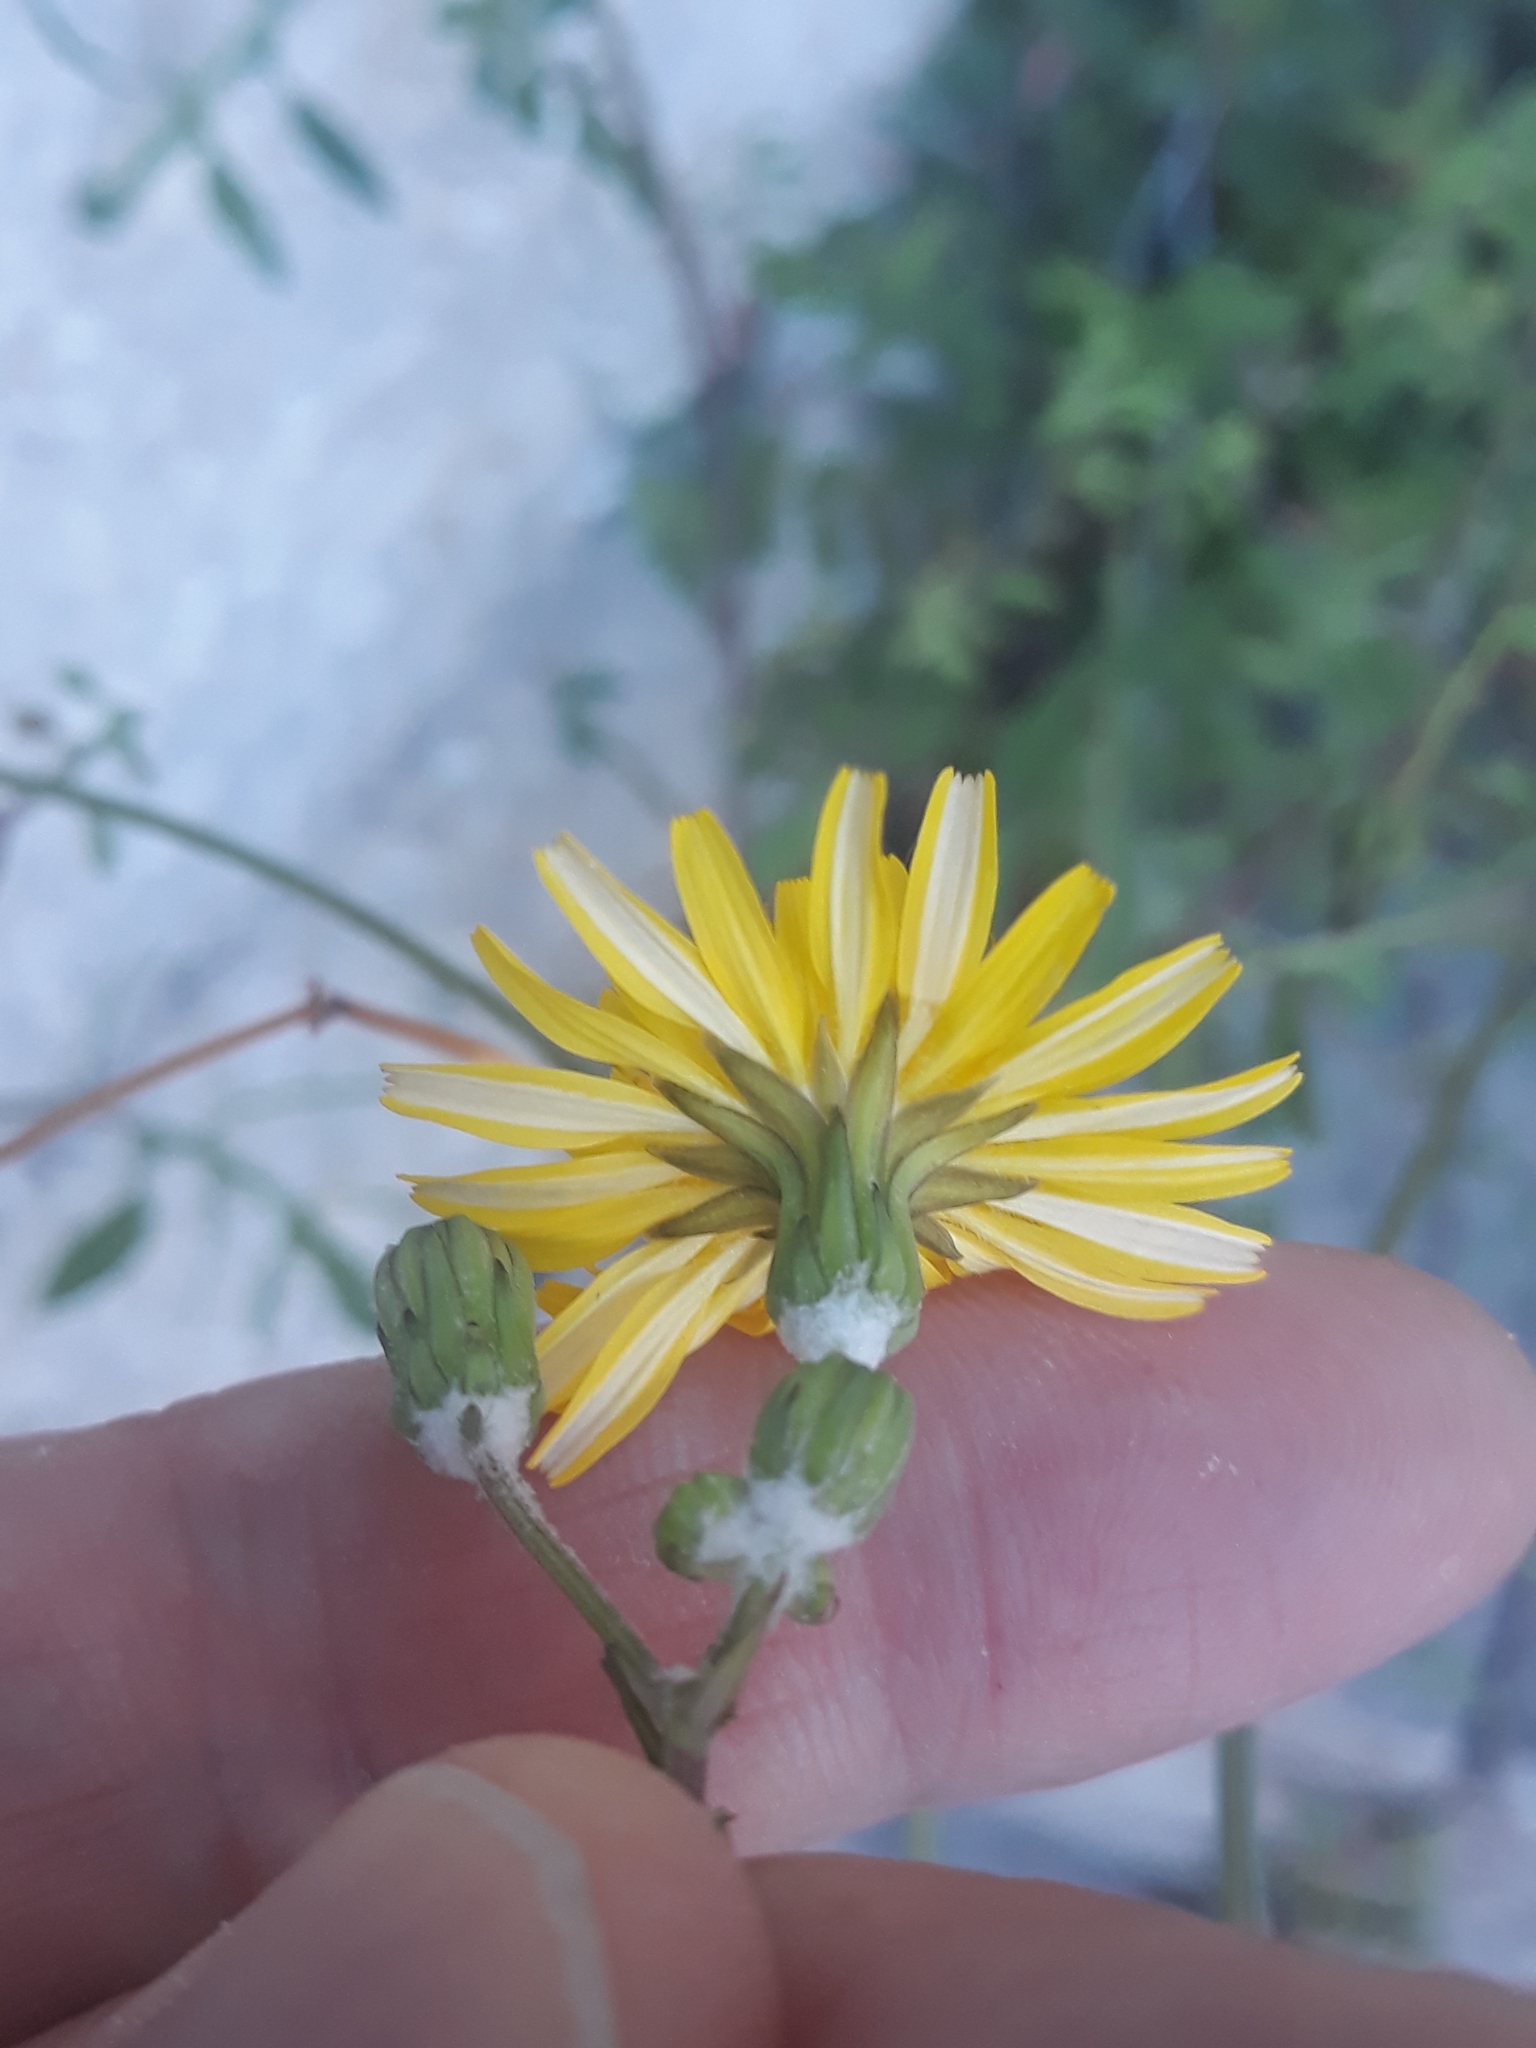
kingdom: Plantae
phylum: Tracheophyta
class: Magnoliopsida
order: Asterales
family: Asteraceae
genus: Sonchus
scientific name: Sonchus tenerrimus
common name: Clammy sowthistle
